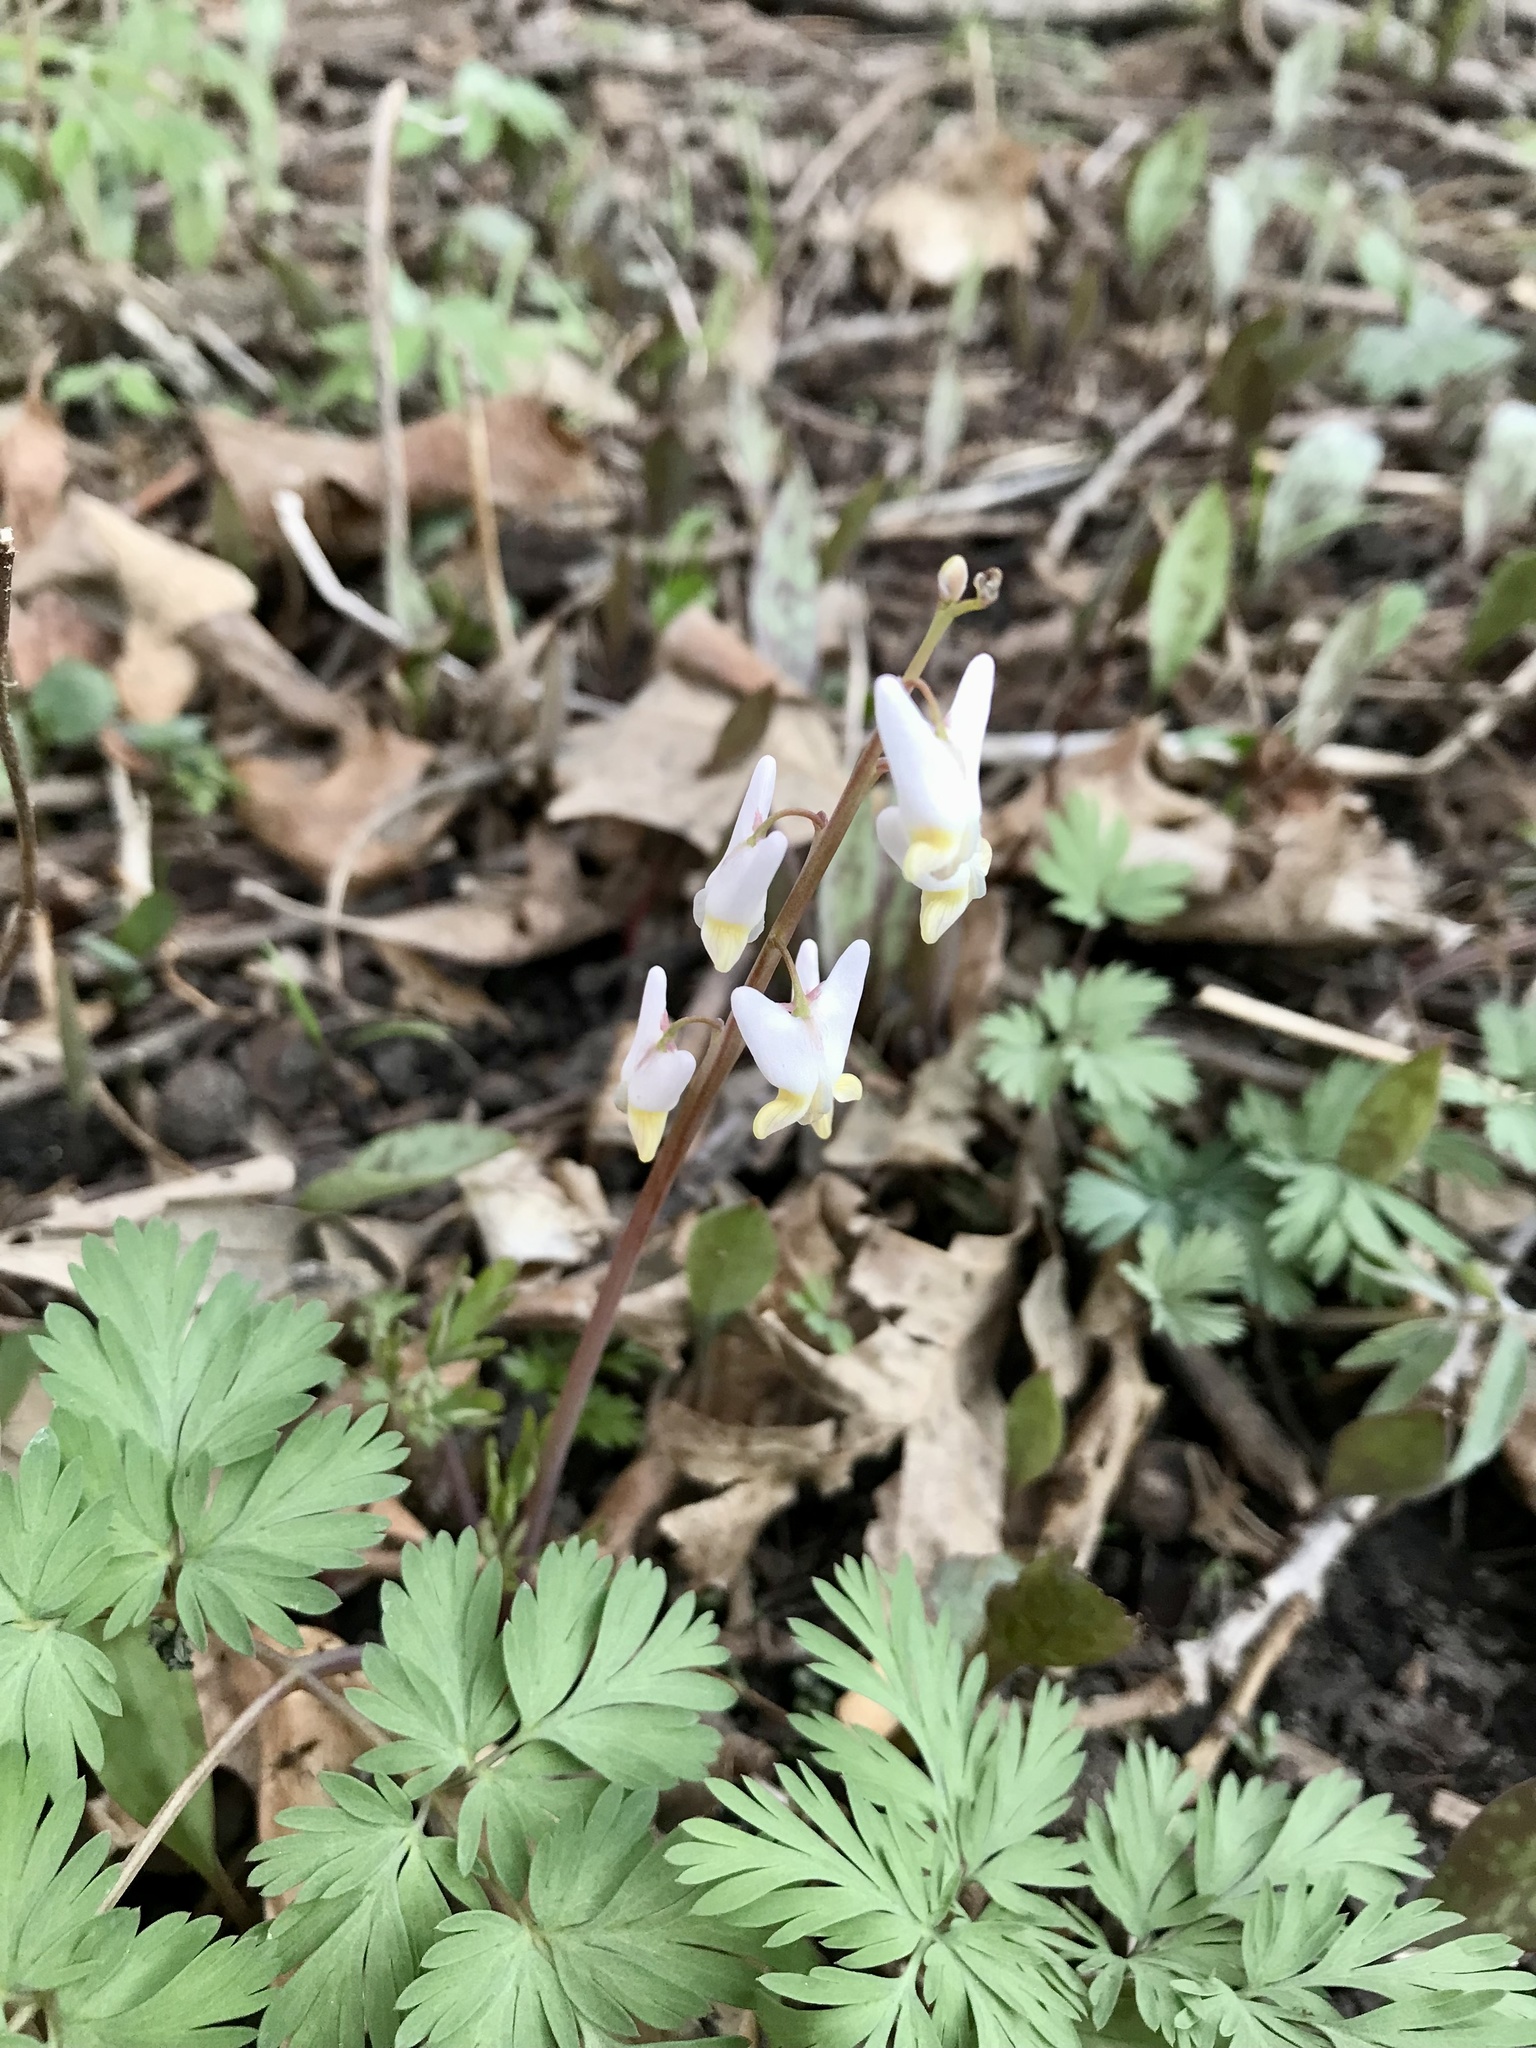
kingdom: Plantae
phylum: Tracheophyta
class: Magnoliopsida
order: Ranunculales
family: Papaveraceae
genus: Dicentra
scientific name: Dicentra cucullaria
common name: Dutchman's breeches
